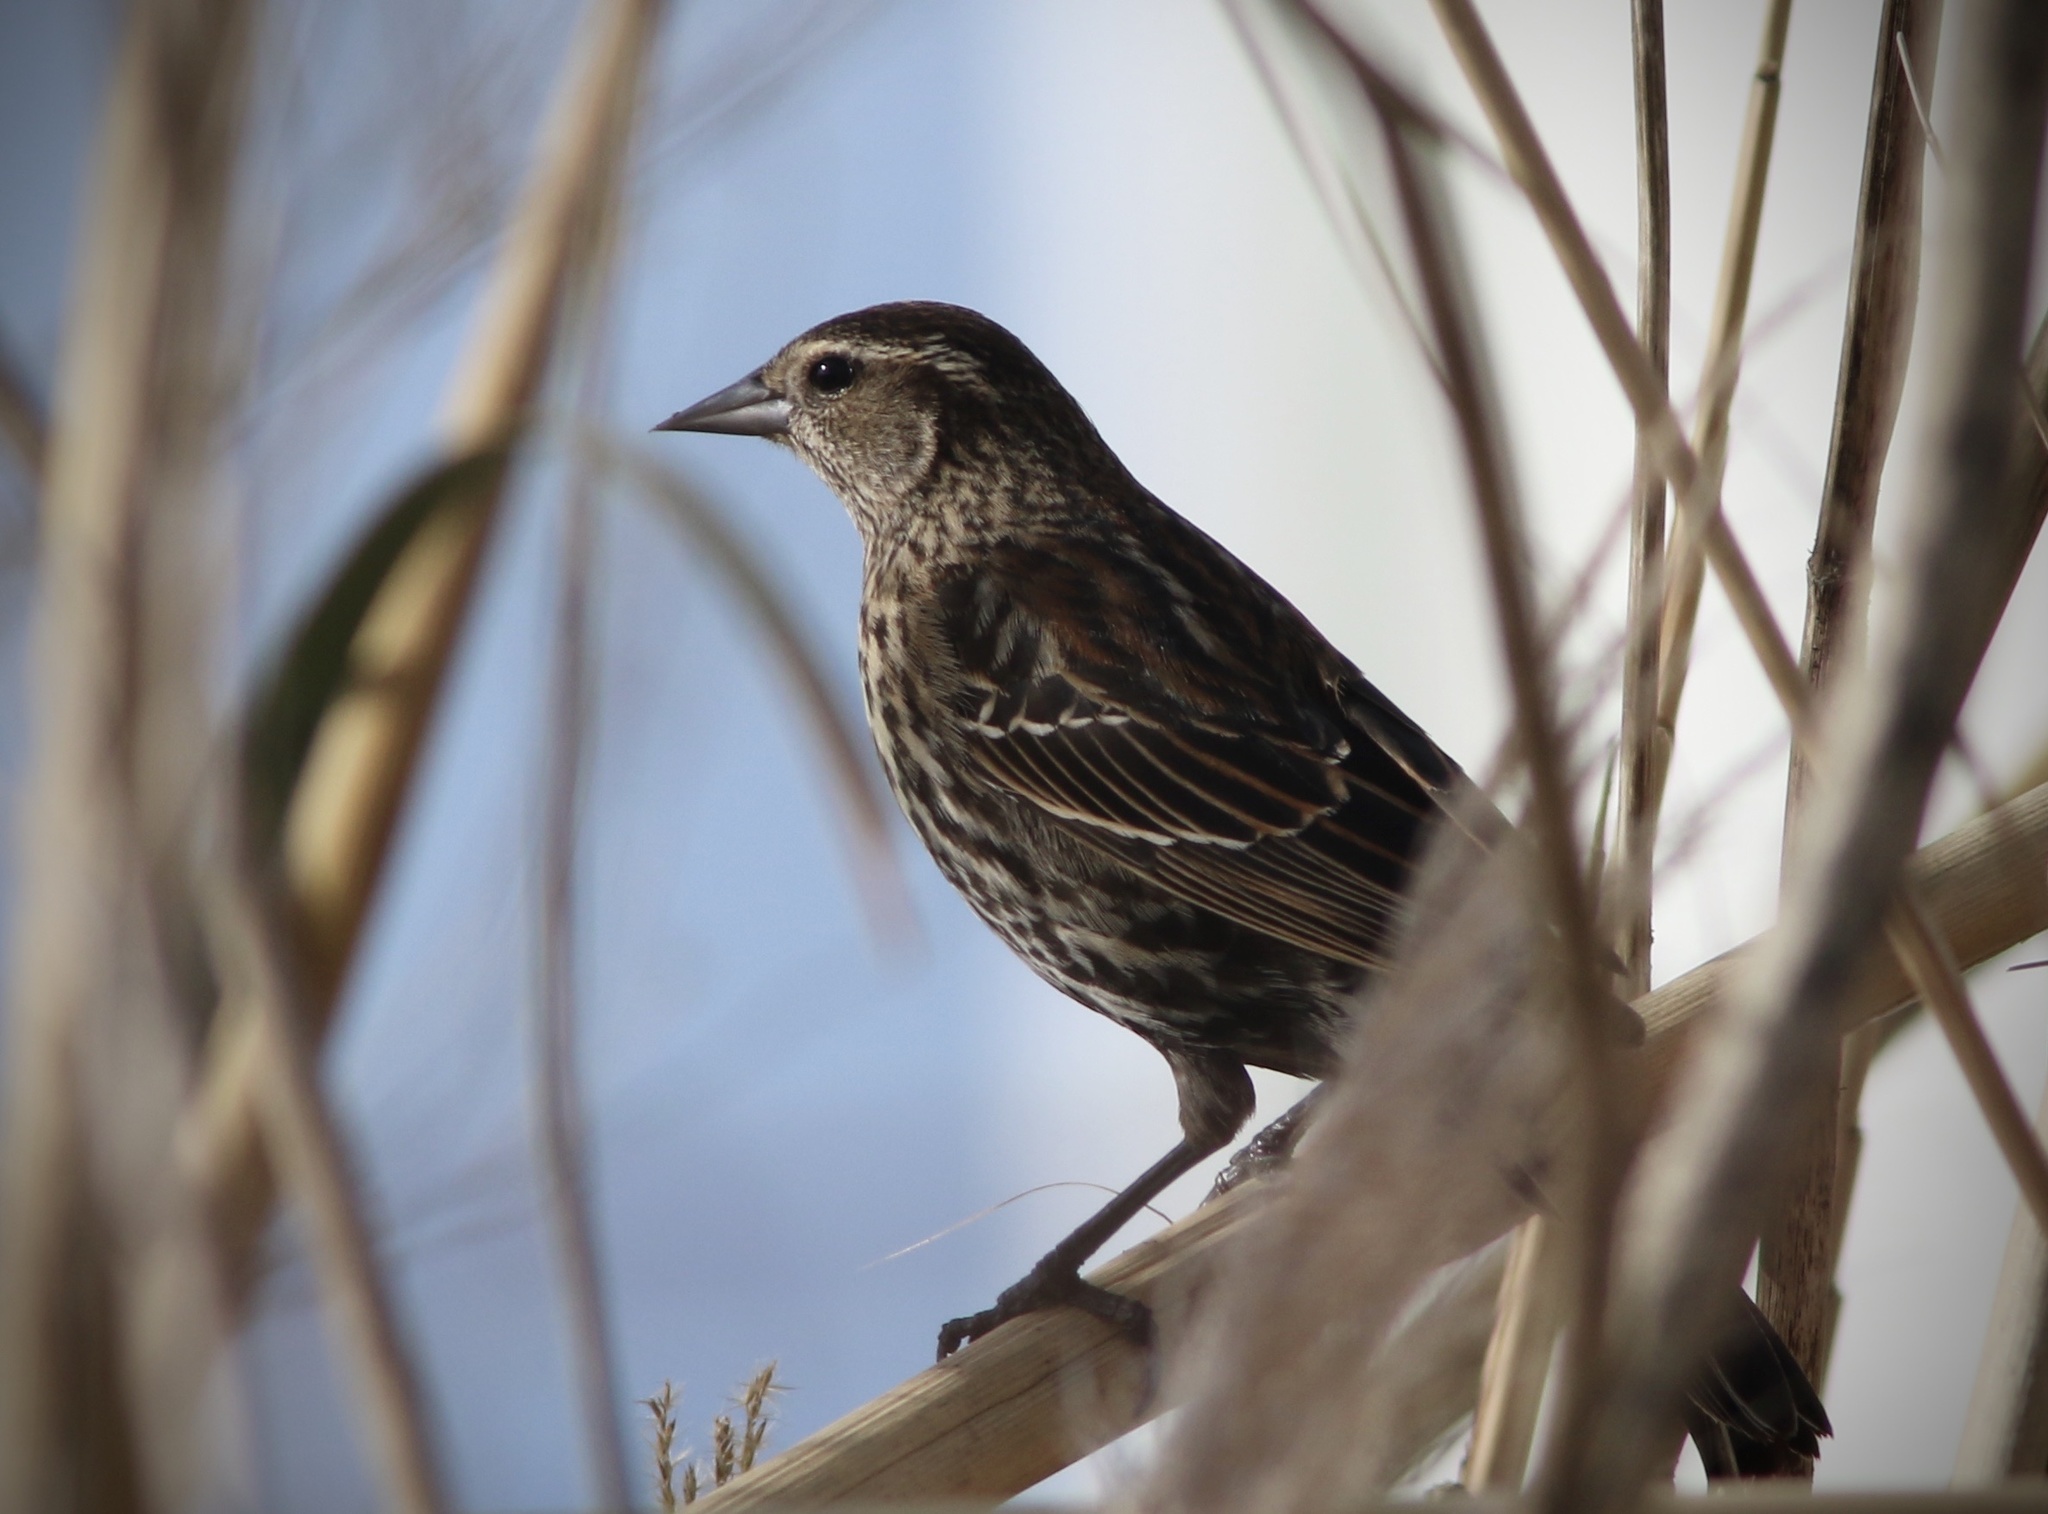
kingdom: Animalia
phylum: Chordata
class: Aves
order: Passeriformes
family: Icteridae
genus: Agelaius
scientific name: Agelaius phoeniceus
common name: Red-winged blackbird
